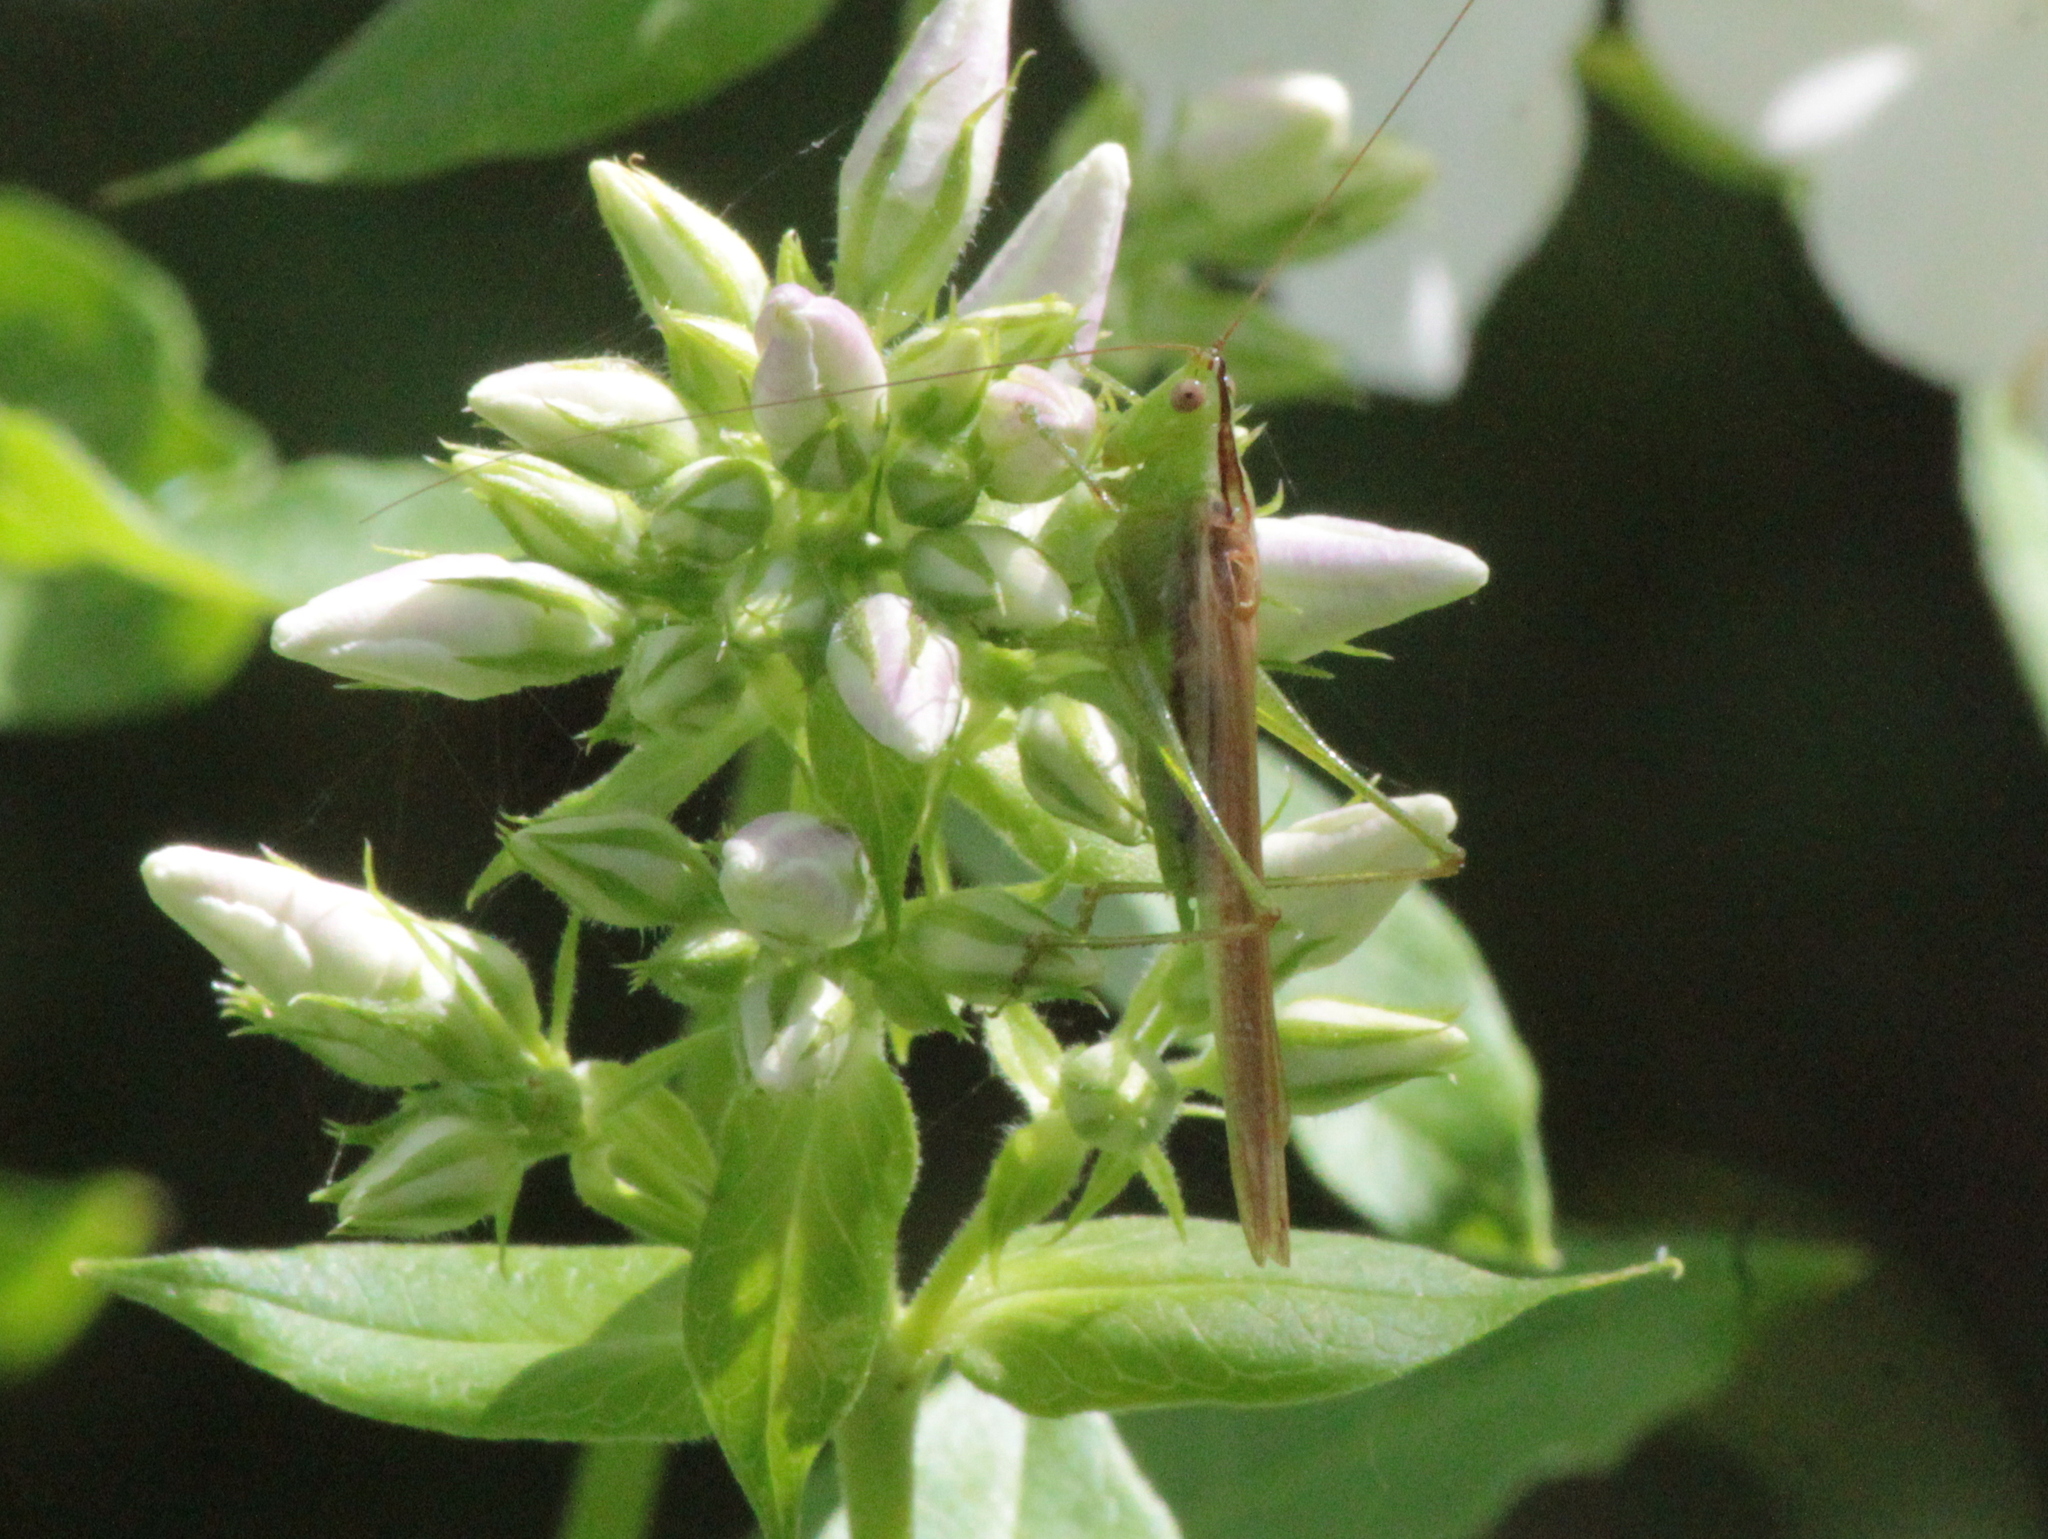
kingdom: Animalia
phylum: Arthropoda
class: Insecta
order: Orthoptera
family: Tettigoniidae
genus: Conocephalus
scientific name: Conocephalus fasciatus
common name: Slender meadow katydid
